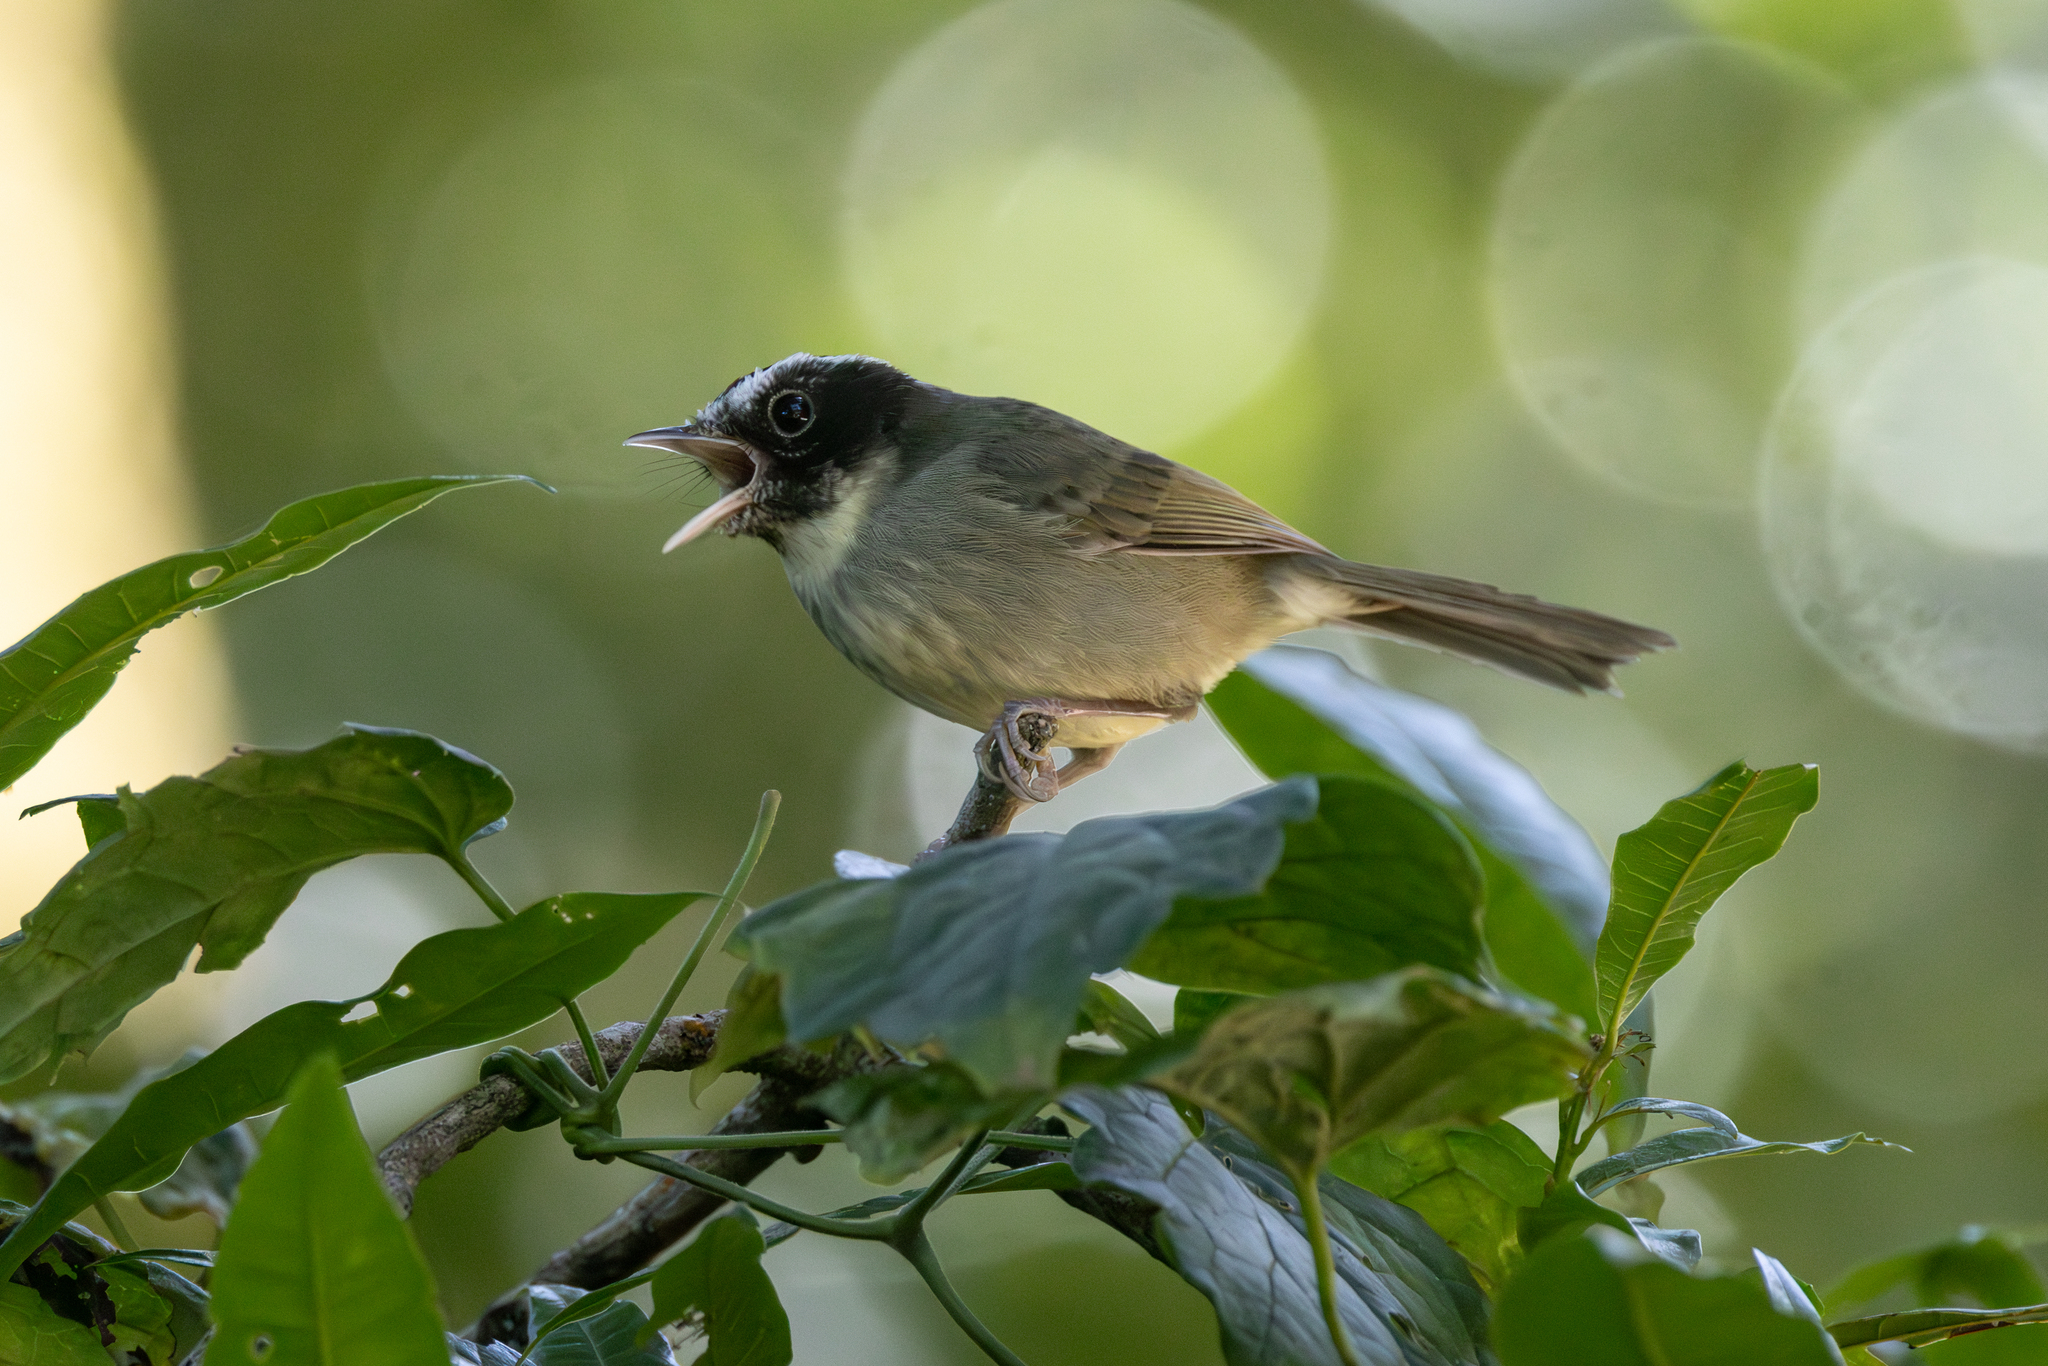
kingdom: Animalia
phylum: Chordata
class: Aves
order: Passeriformes
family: Parulidae
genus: Basileuterus
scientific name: Basileuterus melanogenys
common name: Black-cheeked warbler
